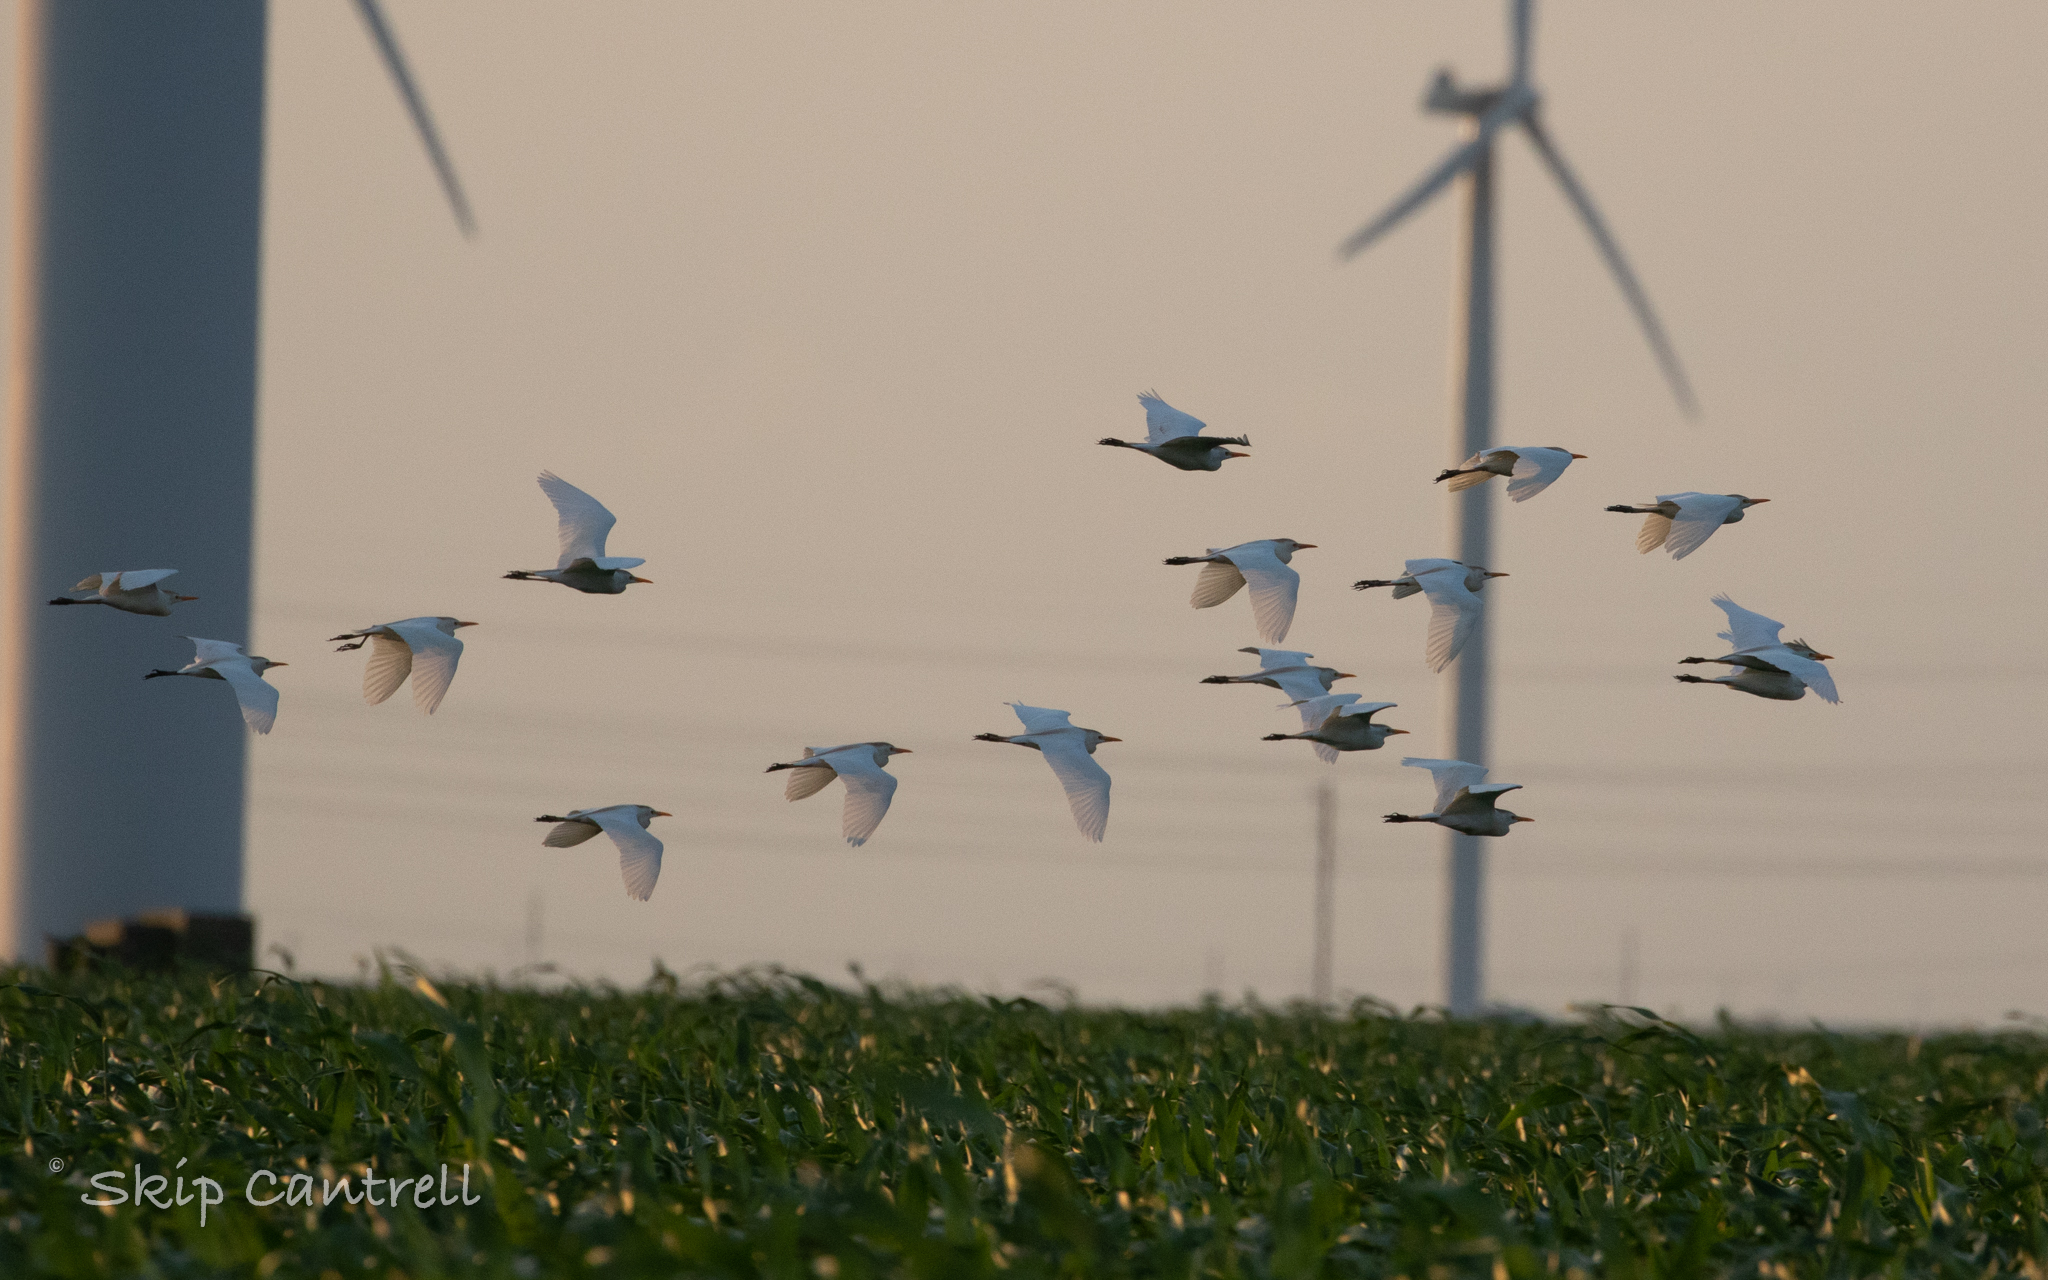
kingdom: Animalia
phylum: Chordata
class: Aves
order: Pelecaniformes
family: Ardeidae
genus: Bubulcus
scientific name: Bubulcus ibis
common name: Cattle egret
